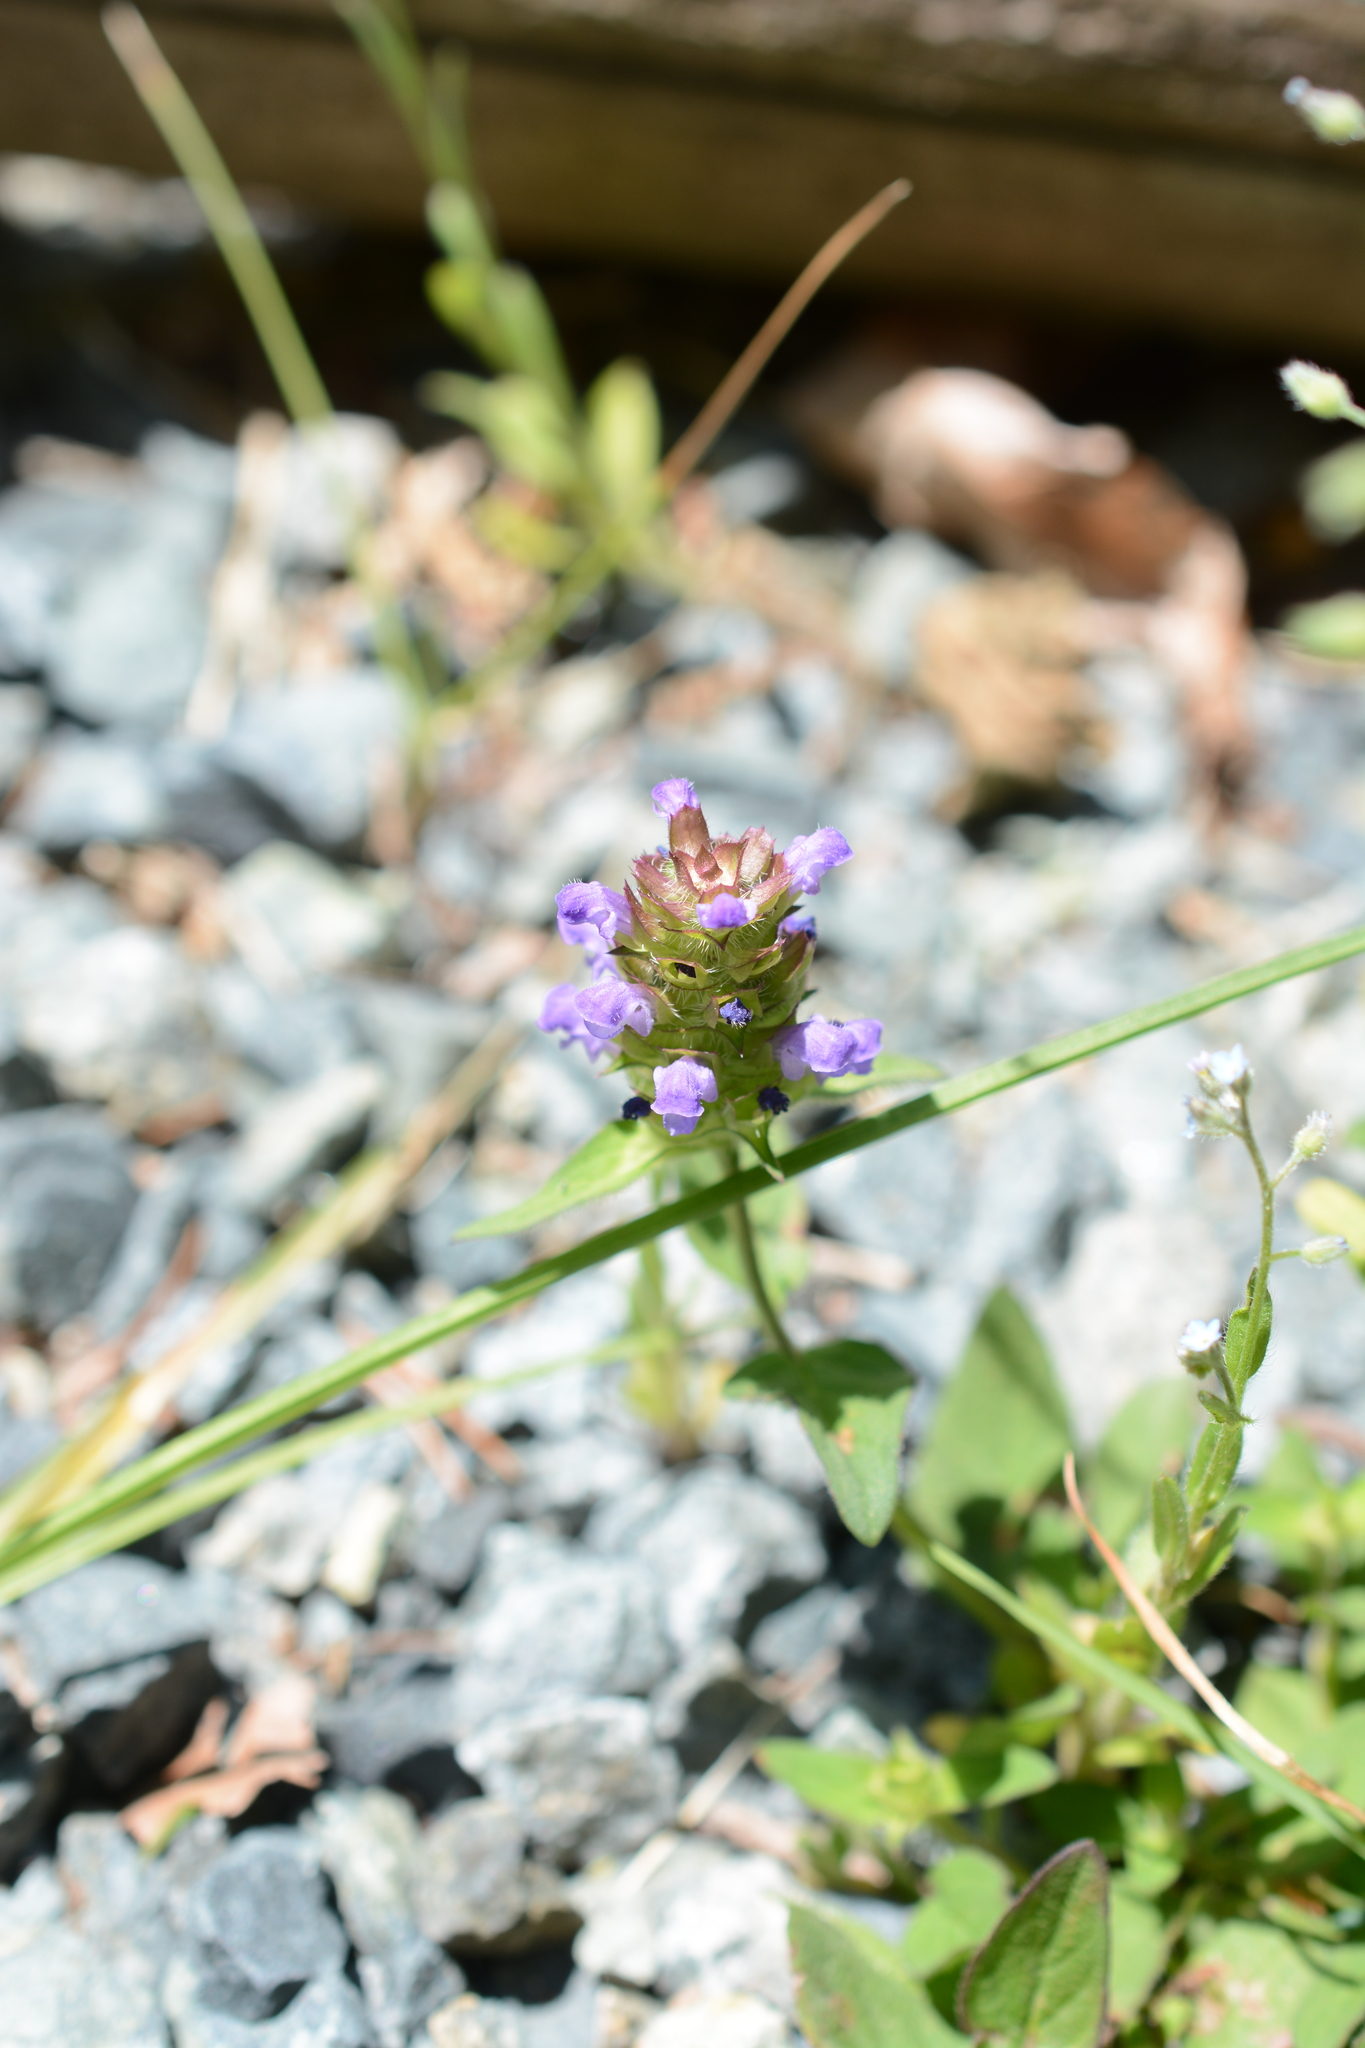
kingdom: Plantae
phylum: Tracheophyta
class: Magnoliopsida
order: Lamiales
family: Lamiaceae
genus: Prunella
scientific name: Prunella vulgaris
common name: Heal-all
